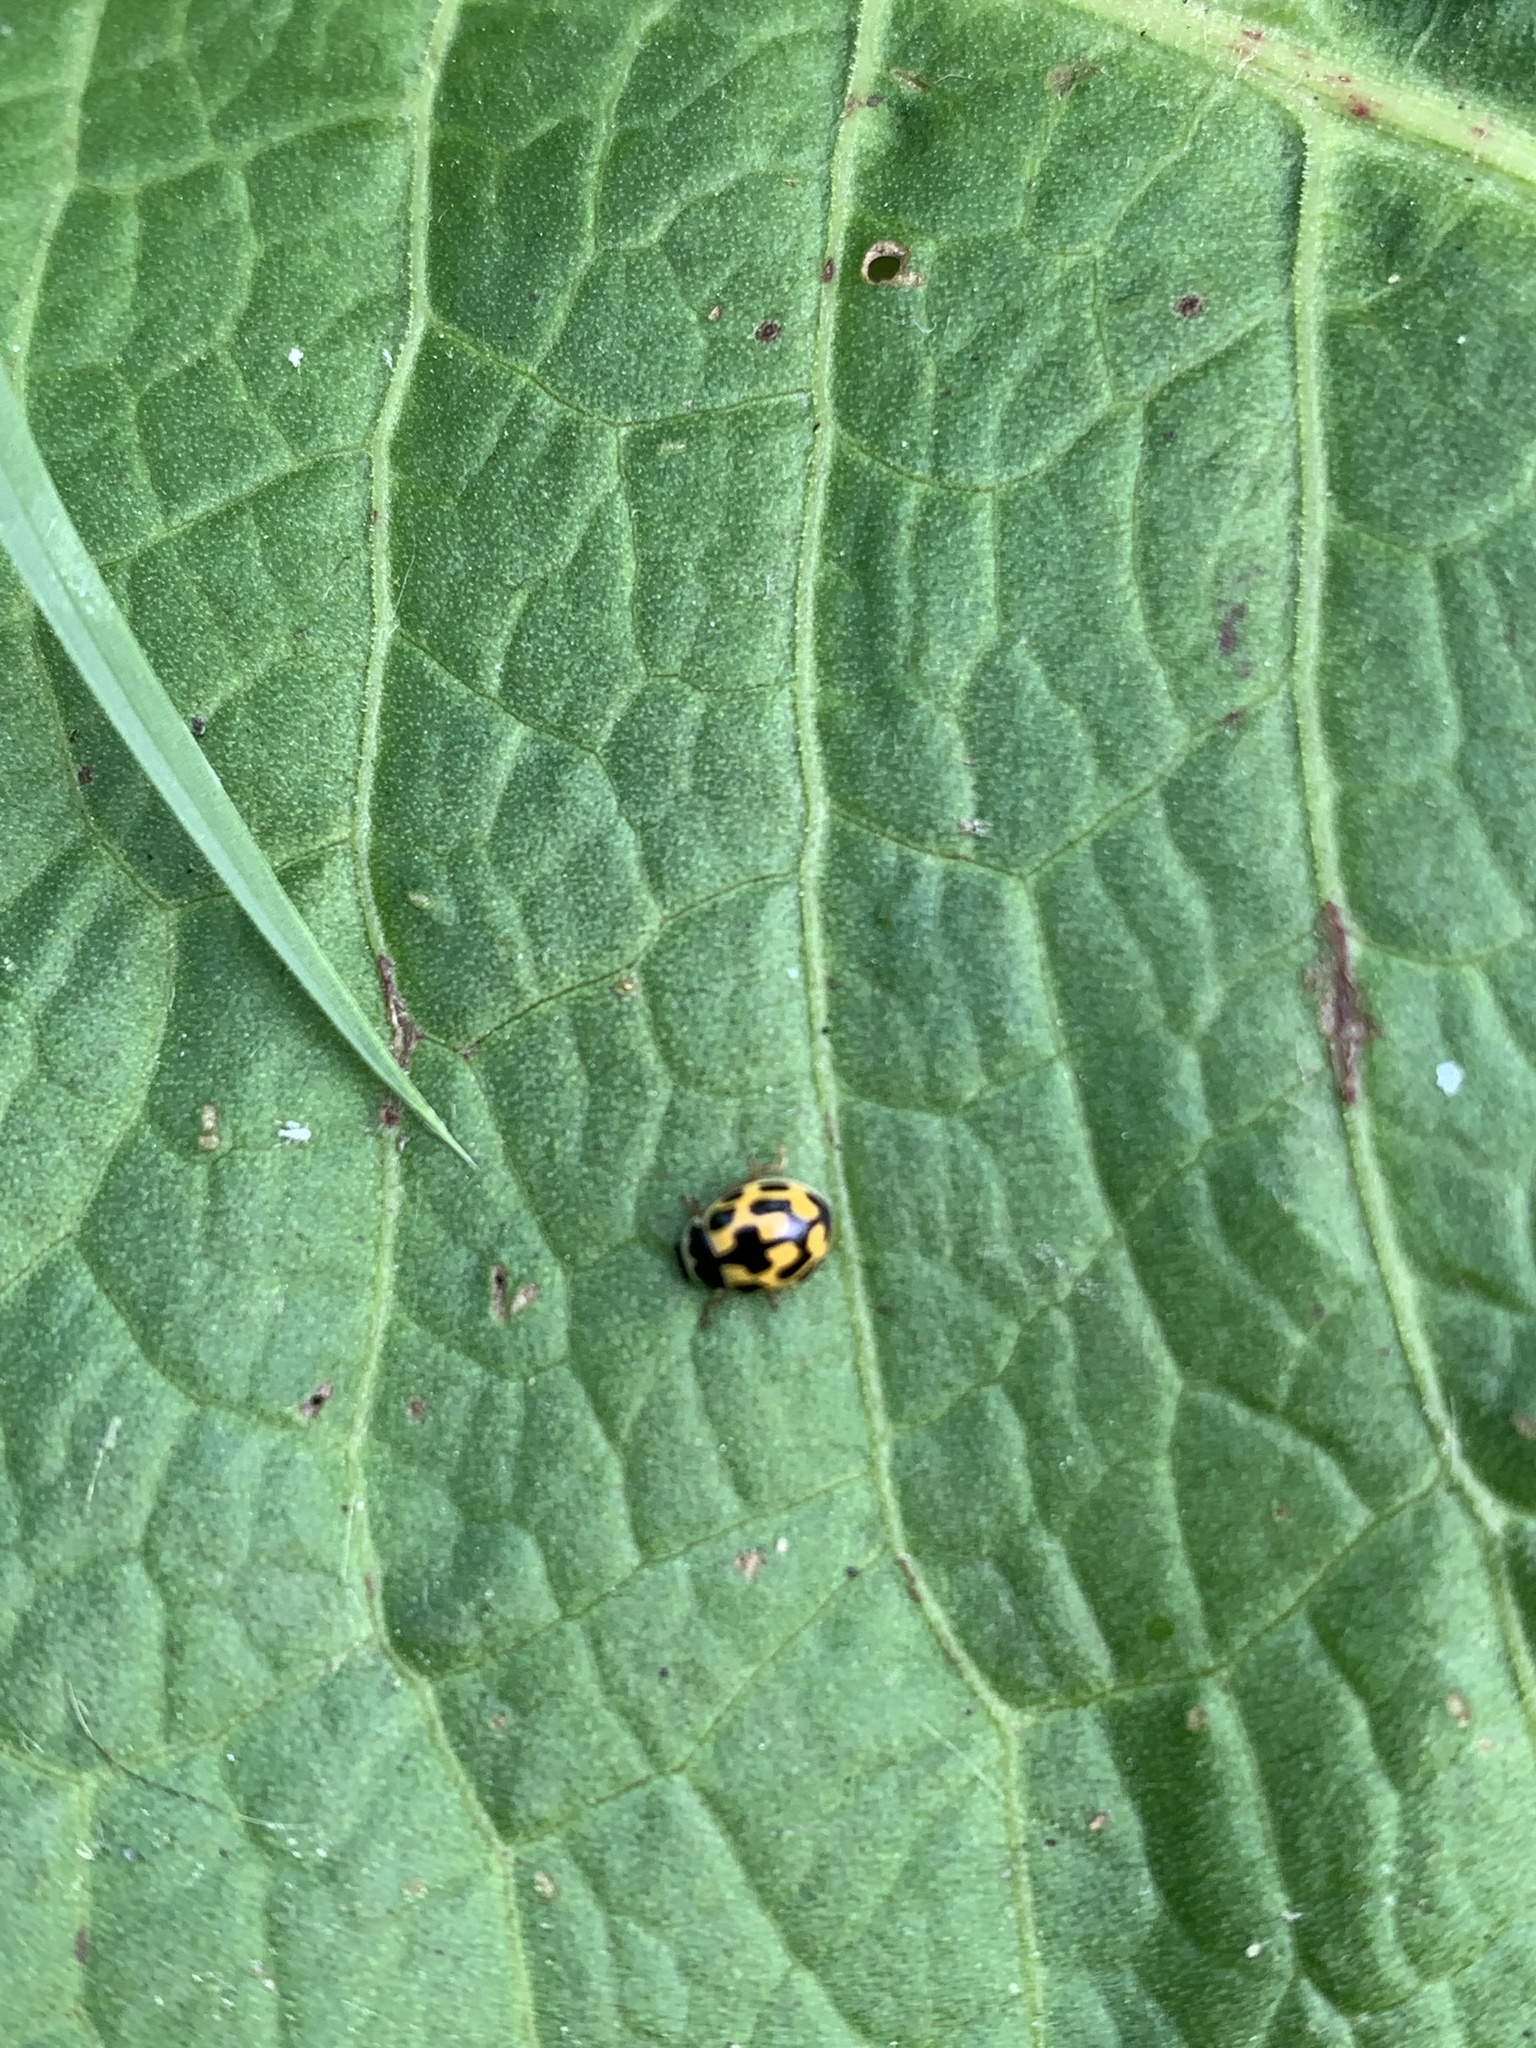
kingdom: Animalia
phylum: Arthropoda
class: Insecta
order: Coleoptera
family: Coccinellidae
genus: Propylaea
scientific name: Propylaea quatuordecimpunctata
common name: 14-spotted ladybird beetle
